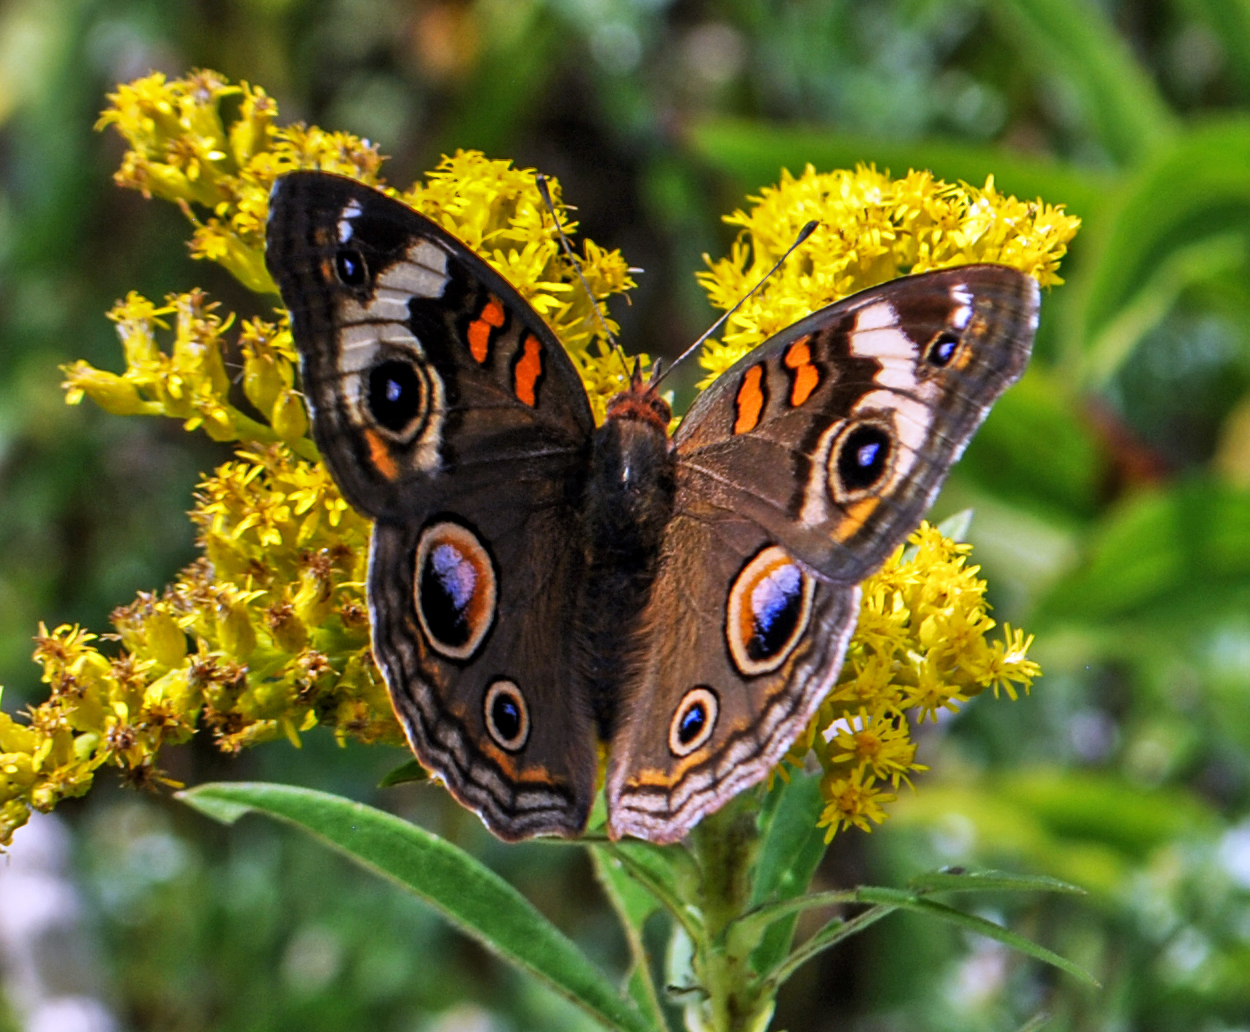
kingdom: Animalia
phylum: Arthropoda
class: Insecta
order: Lepidoptera
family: Nymphalidae
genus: Junonia
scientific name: Junonia coenia
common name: Common buckeye
